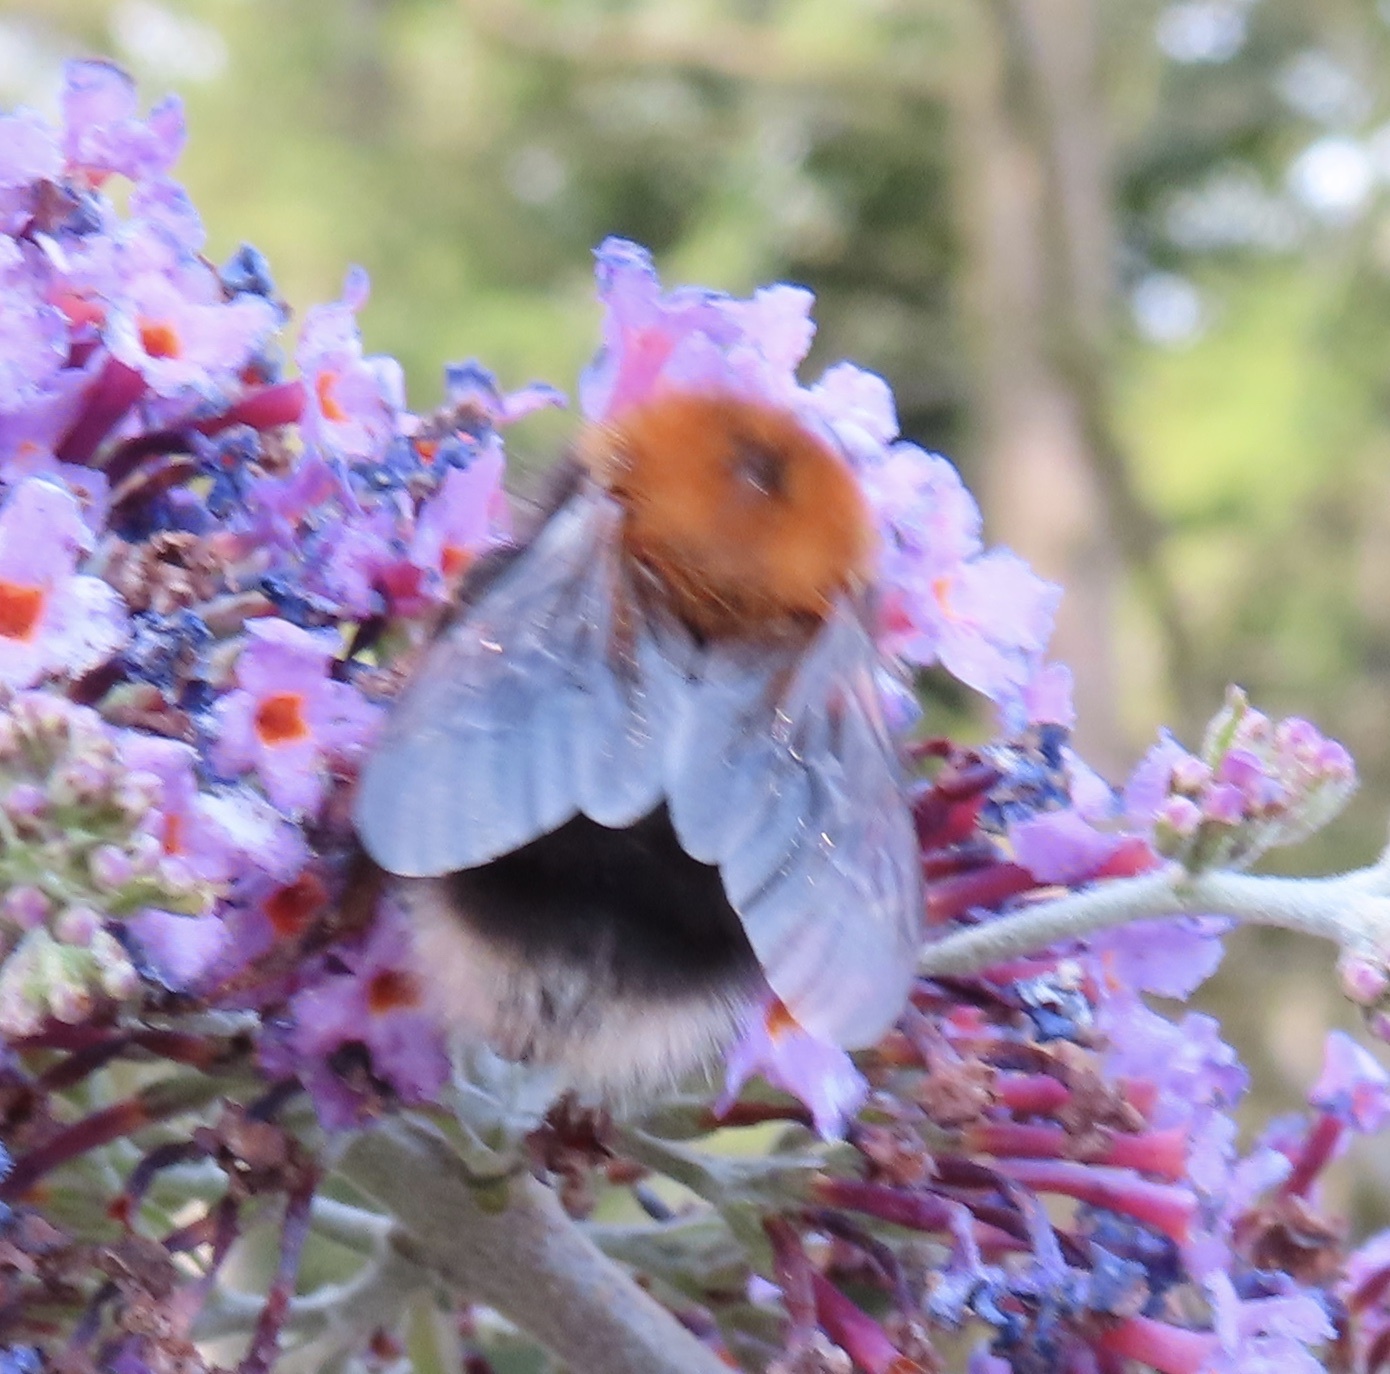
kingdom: Animalia
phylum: Arthropoda
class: Insecta
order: Hymenoptera
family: Apidae
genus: Bombus
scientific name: Bombus hypnorum
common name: New garden bumblebee
